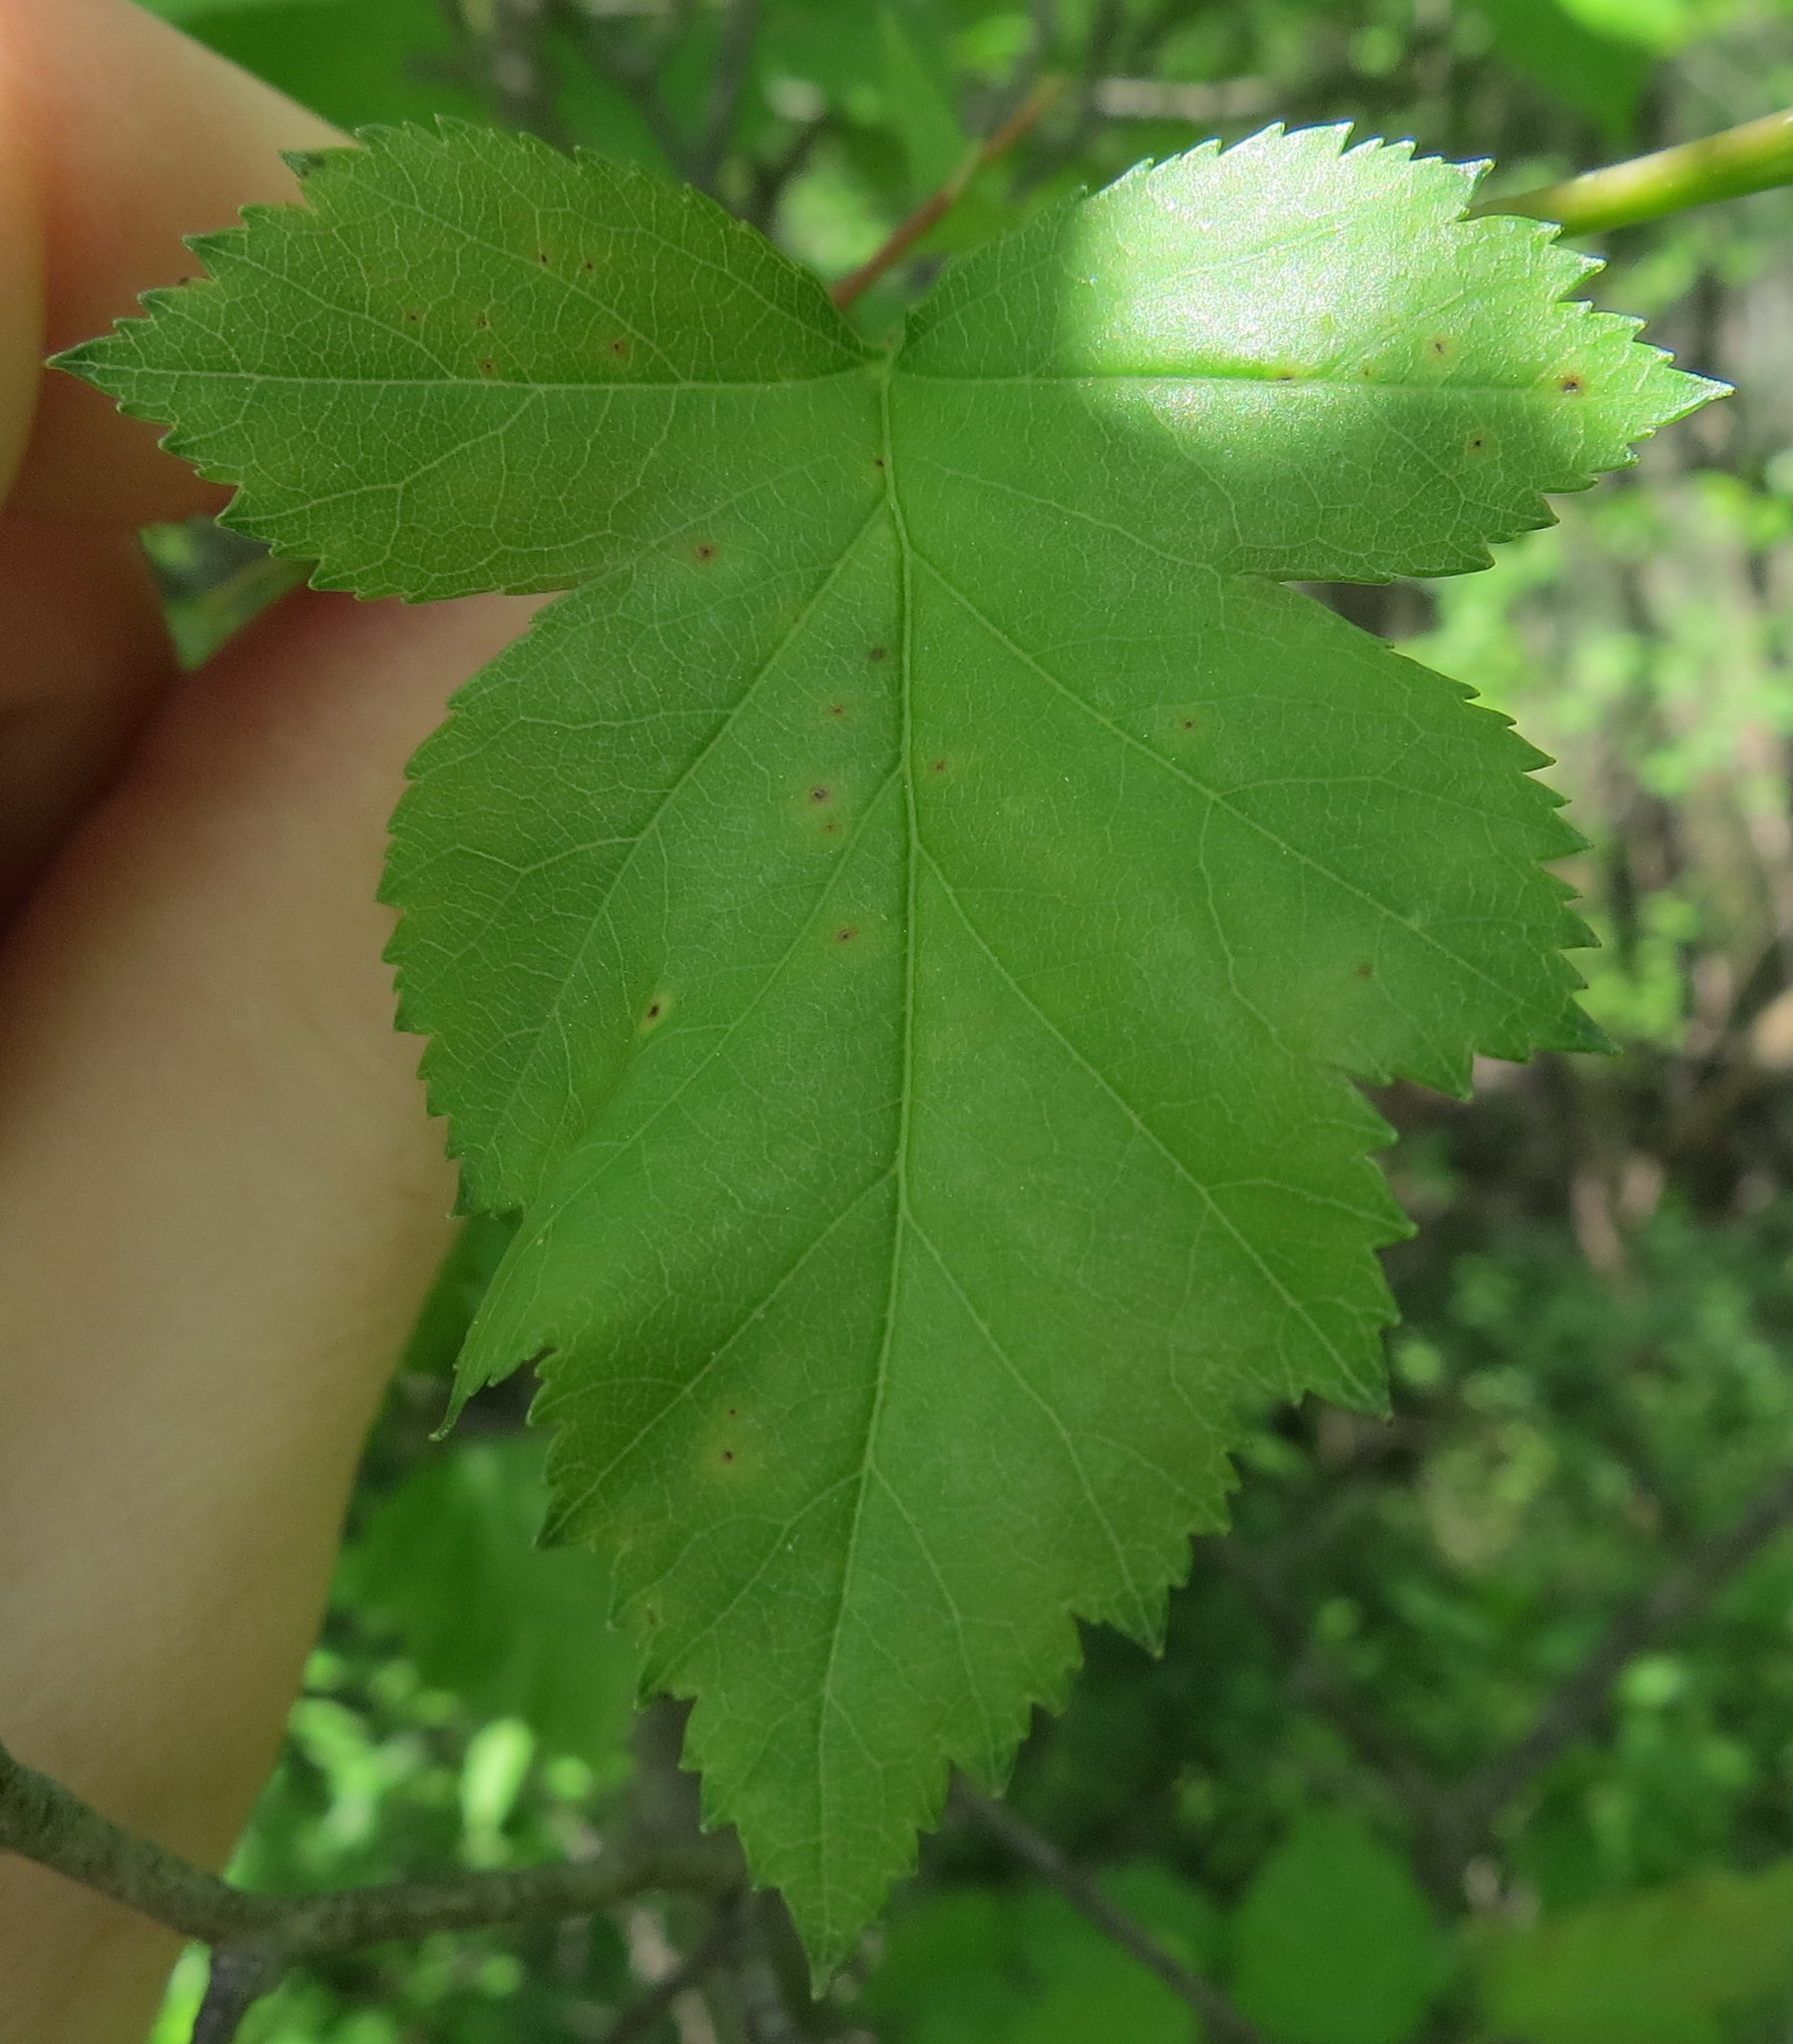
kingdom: Plantae
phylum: Tracheophyta
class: Magnoliopsida
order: Rosales
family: Rosaceae
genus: Crataegus
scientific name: Crataegus phaenopyrum
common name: Washington hawthorn
